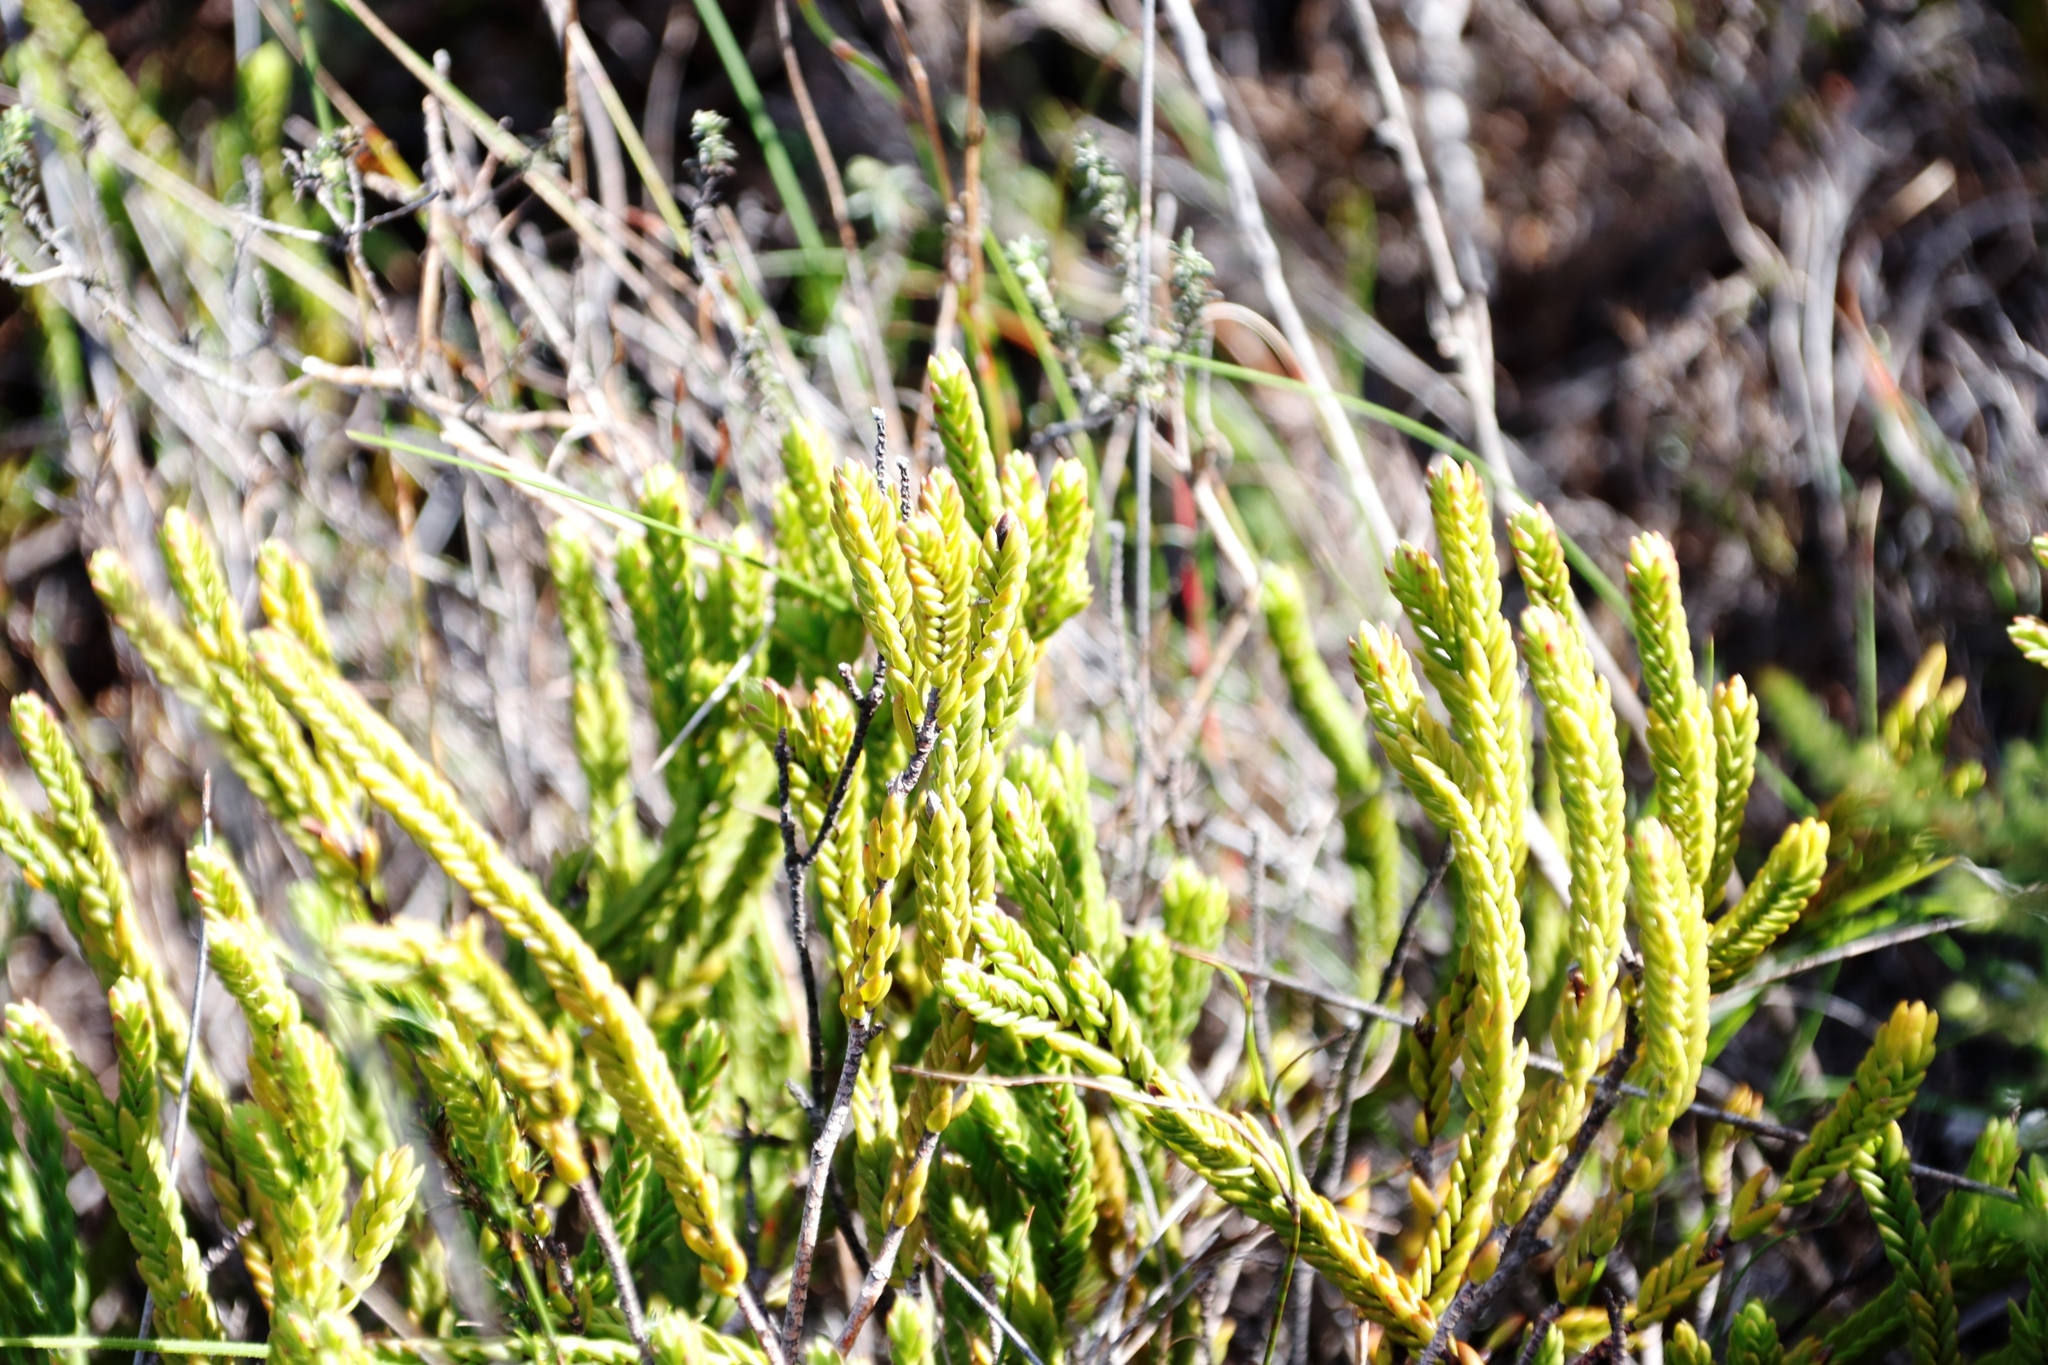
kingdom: Plantae
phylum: Tracheophyta
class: Magnoliopsida
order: Malvales
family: Thymelaeaceae
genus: Lachnaea
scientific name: Lachnaea grandiflora
